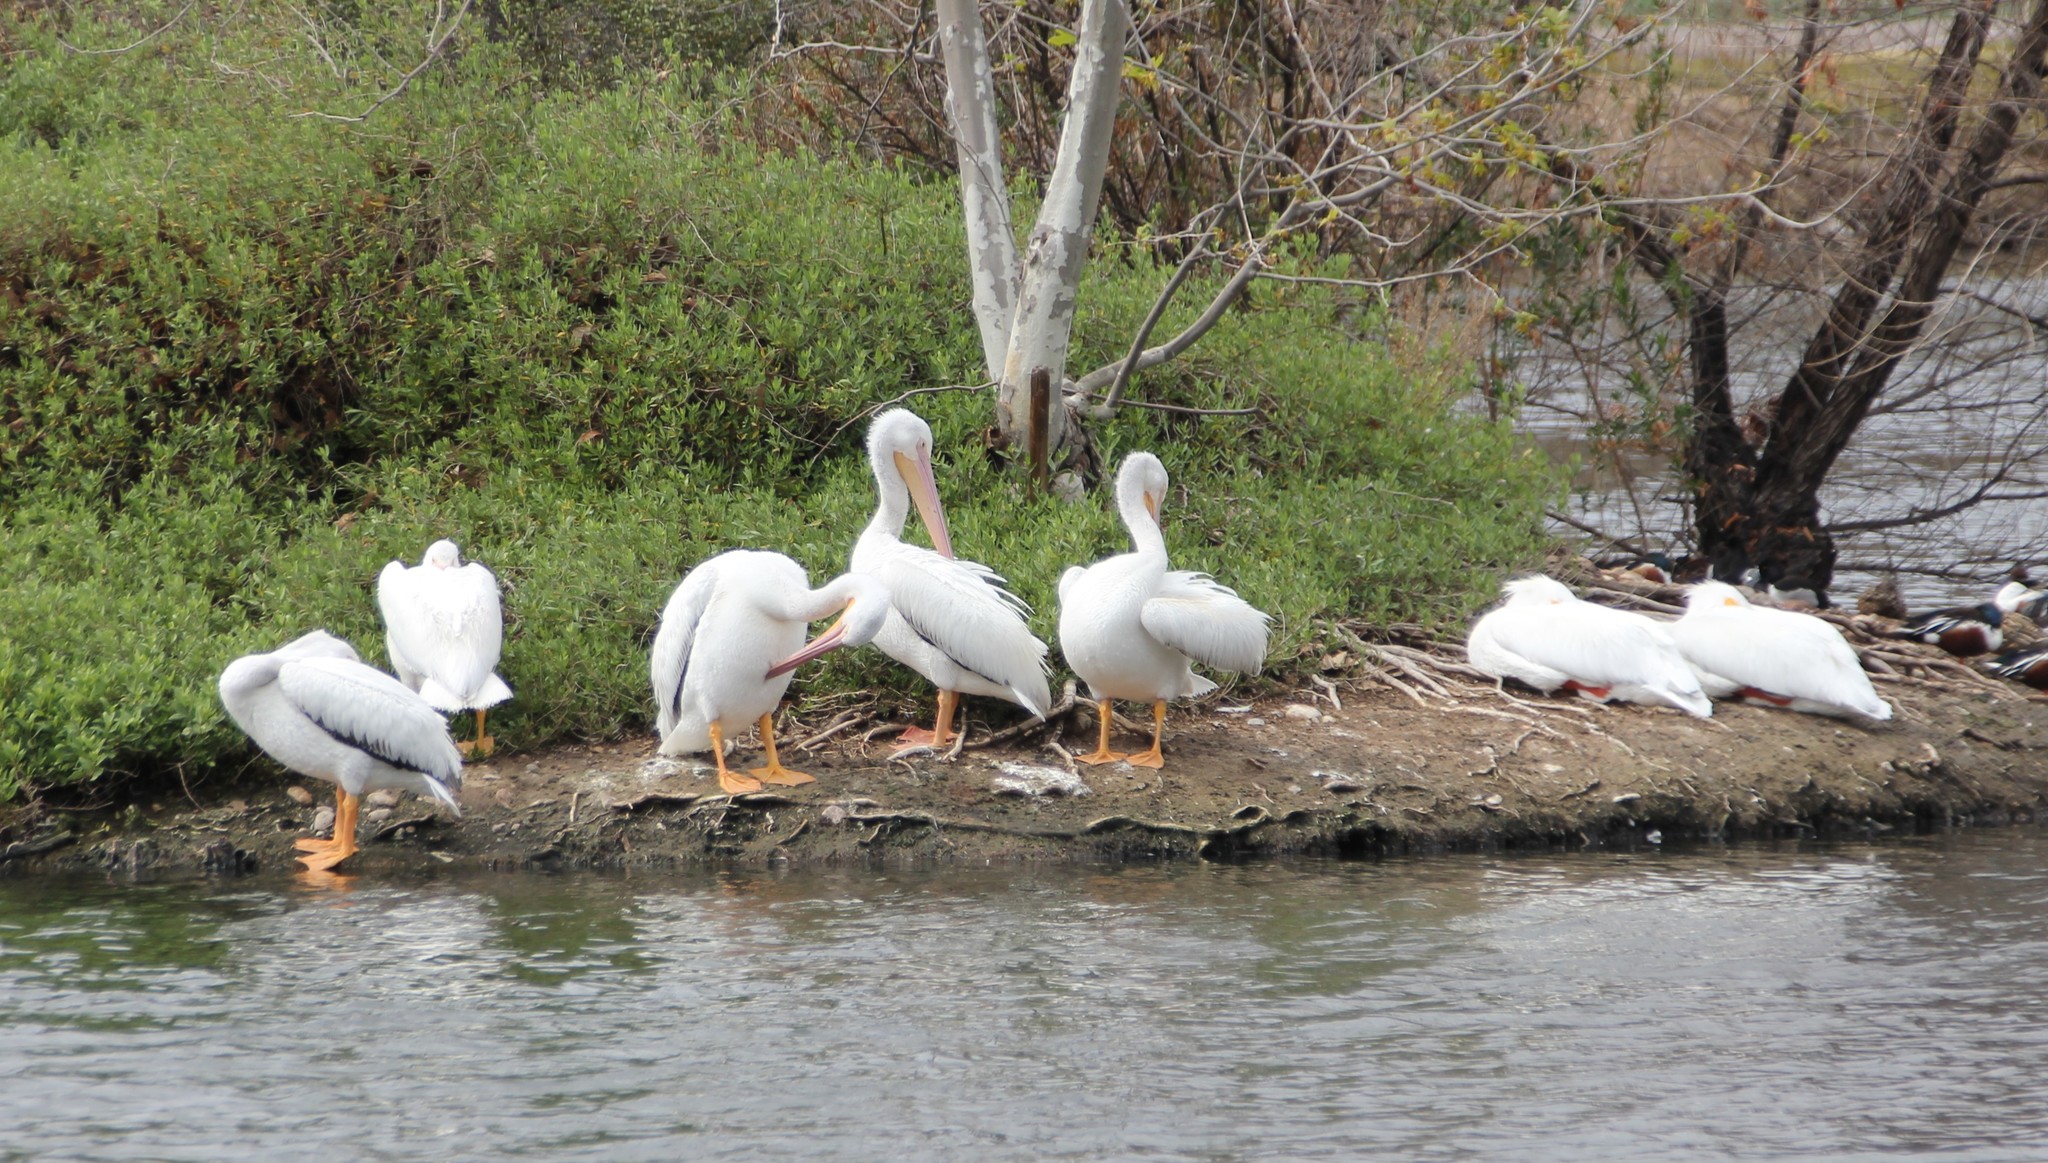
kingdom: Animalia
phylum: Chordata
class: Aves
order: Pelecaniformes
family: Pelecanidae
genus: Pelecanus
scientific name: Pelecanus erythrorhynchos
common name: American white pelican
